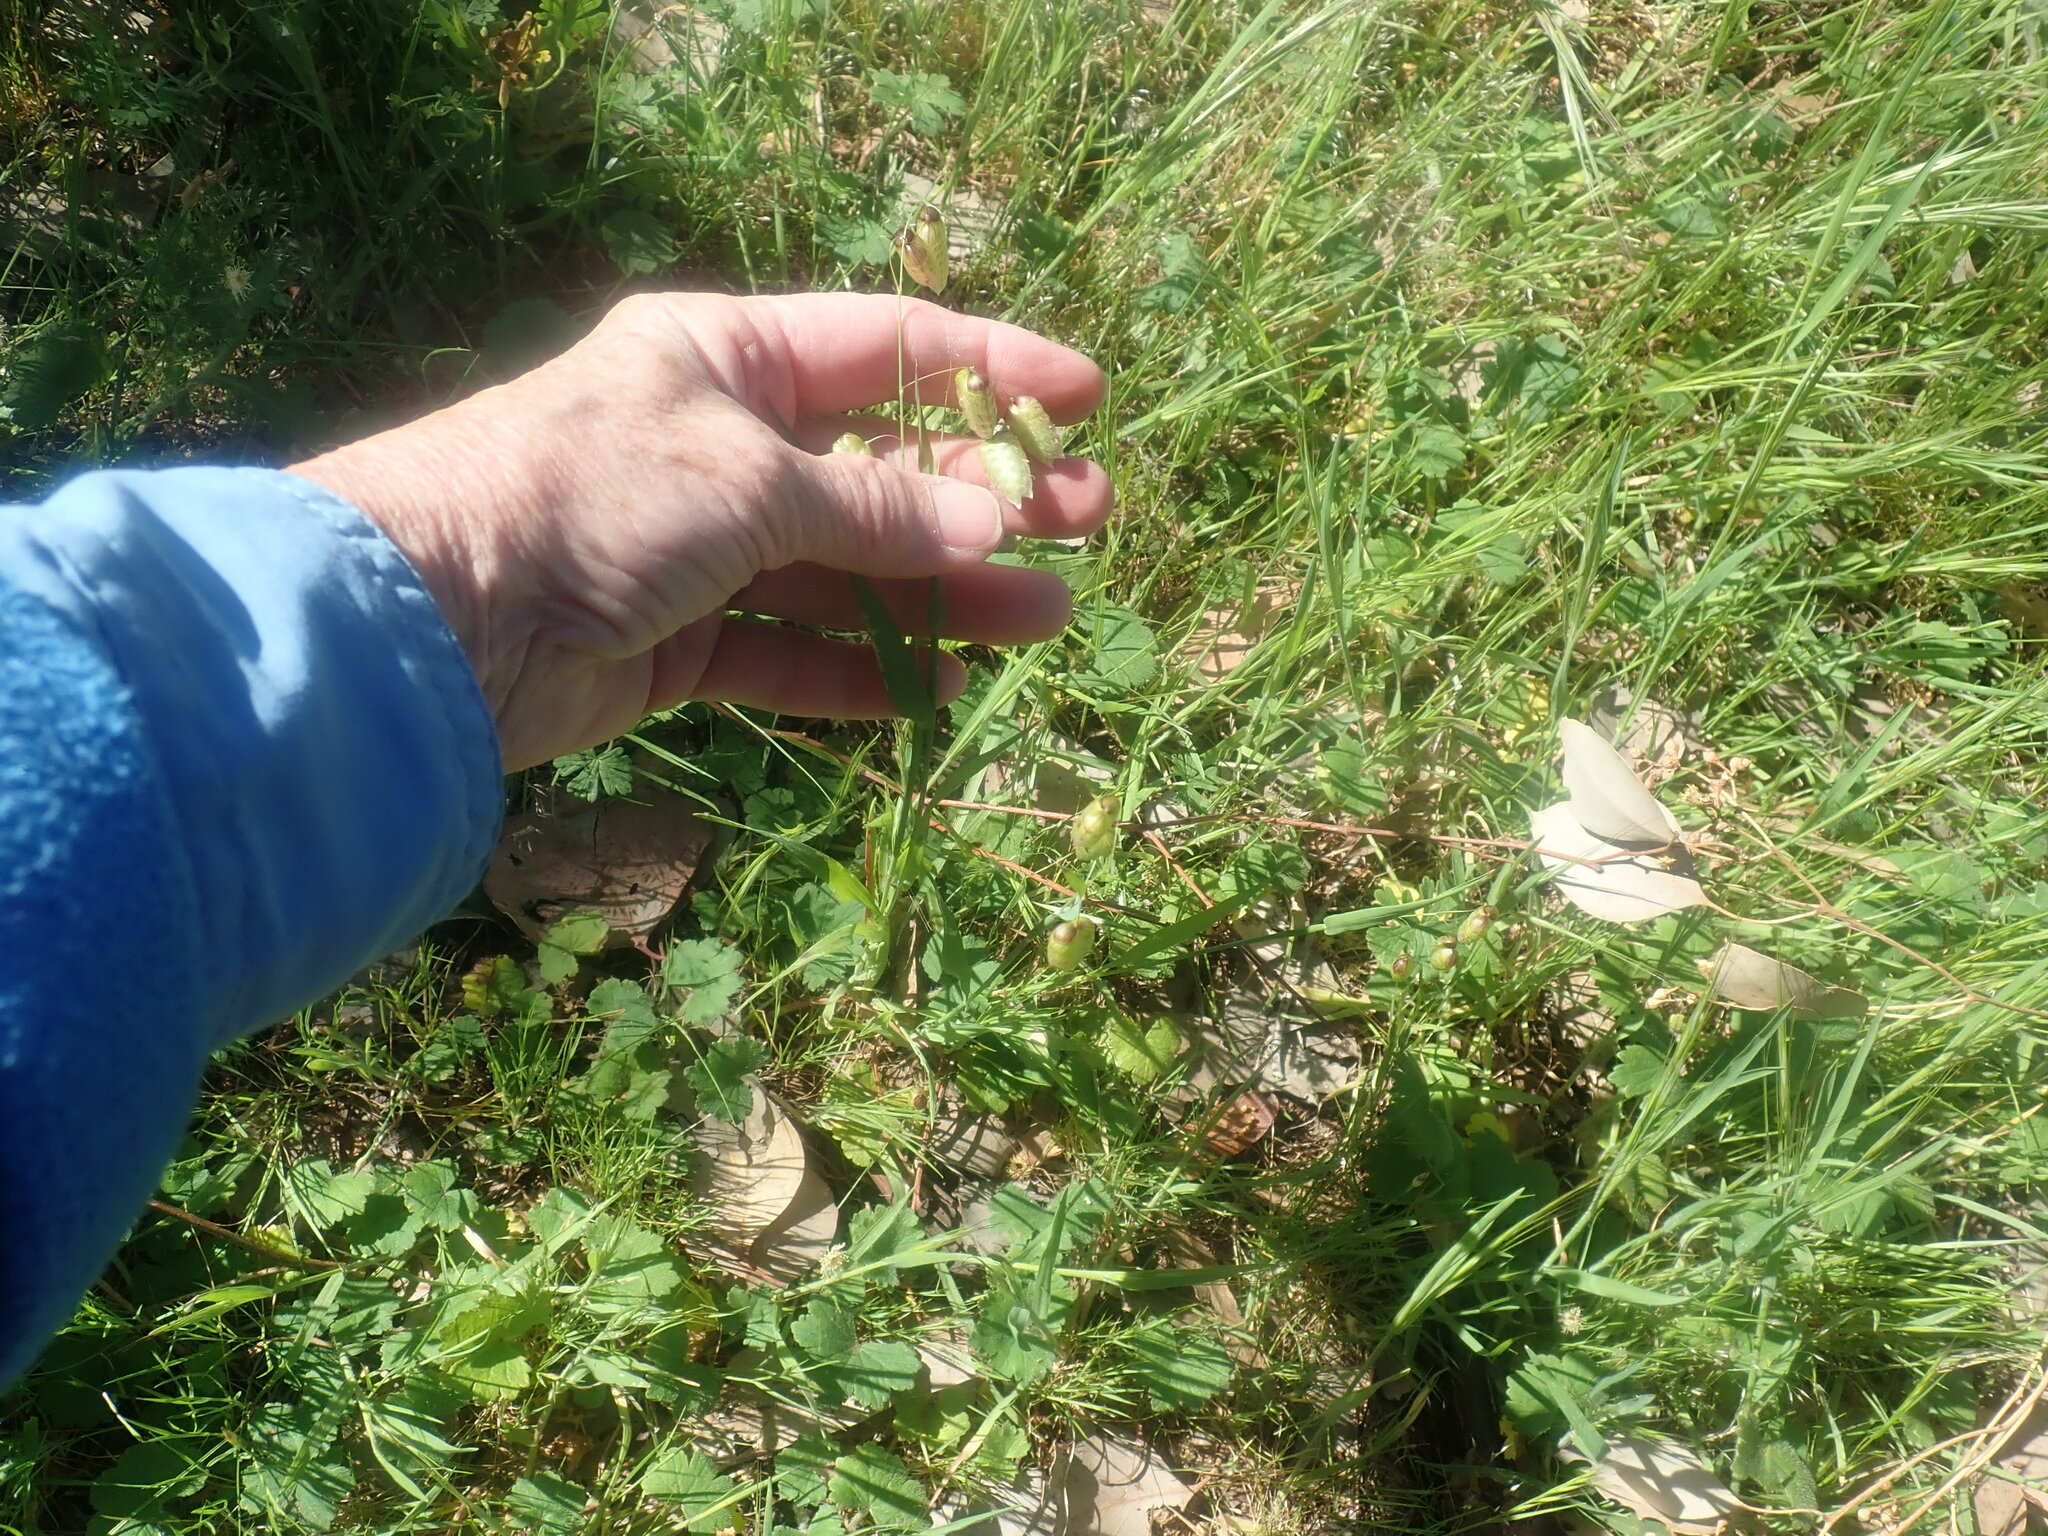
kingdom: Plantae
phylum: Tracheophyta
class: Liliopsida
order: Poales
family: Poaceae
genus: Briza
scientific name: Briza maxima
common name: Big quakinggrass
